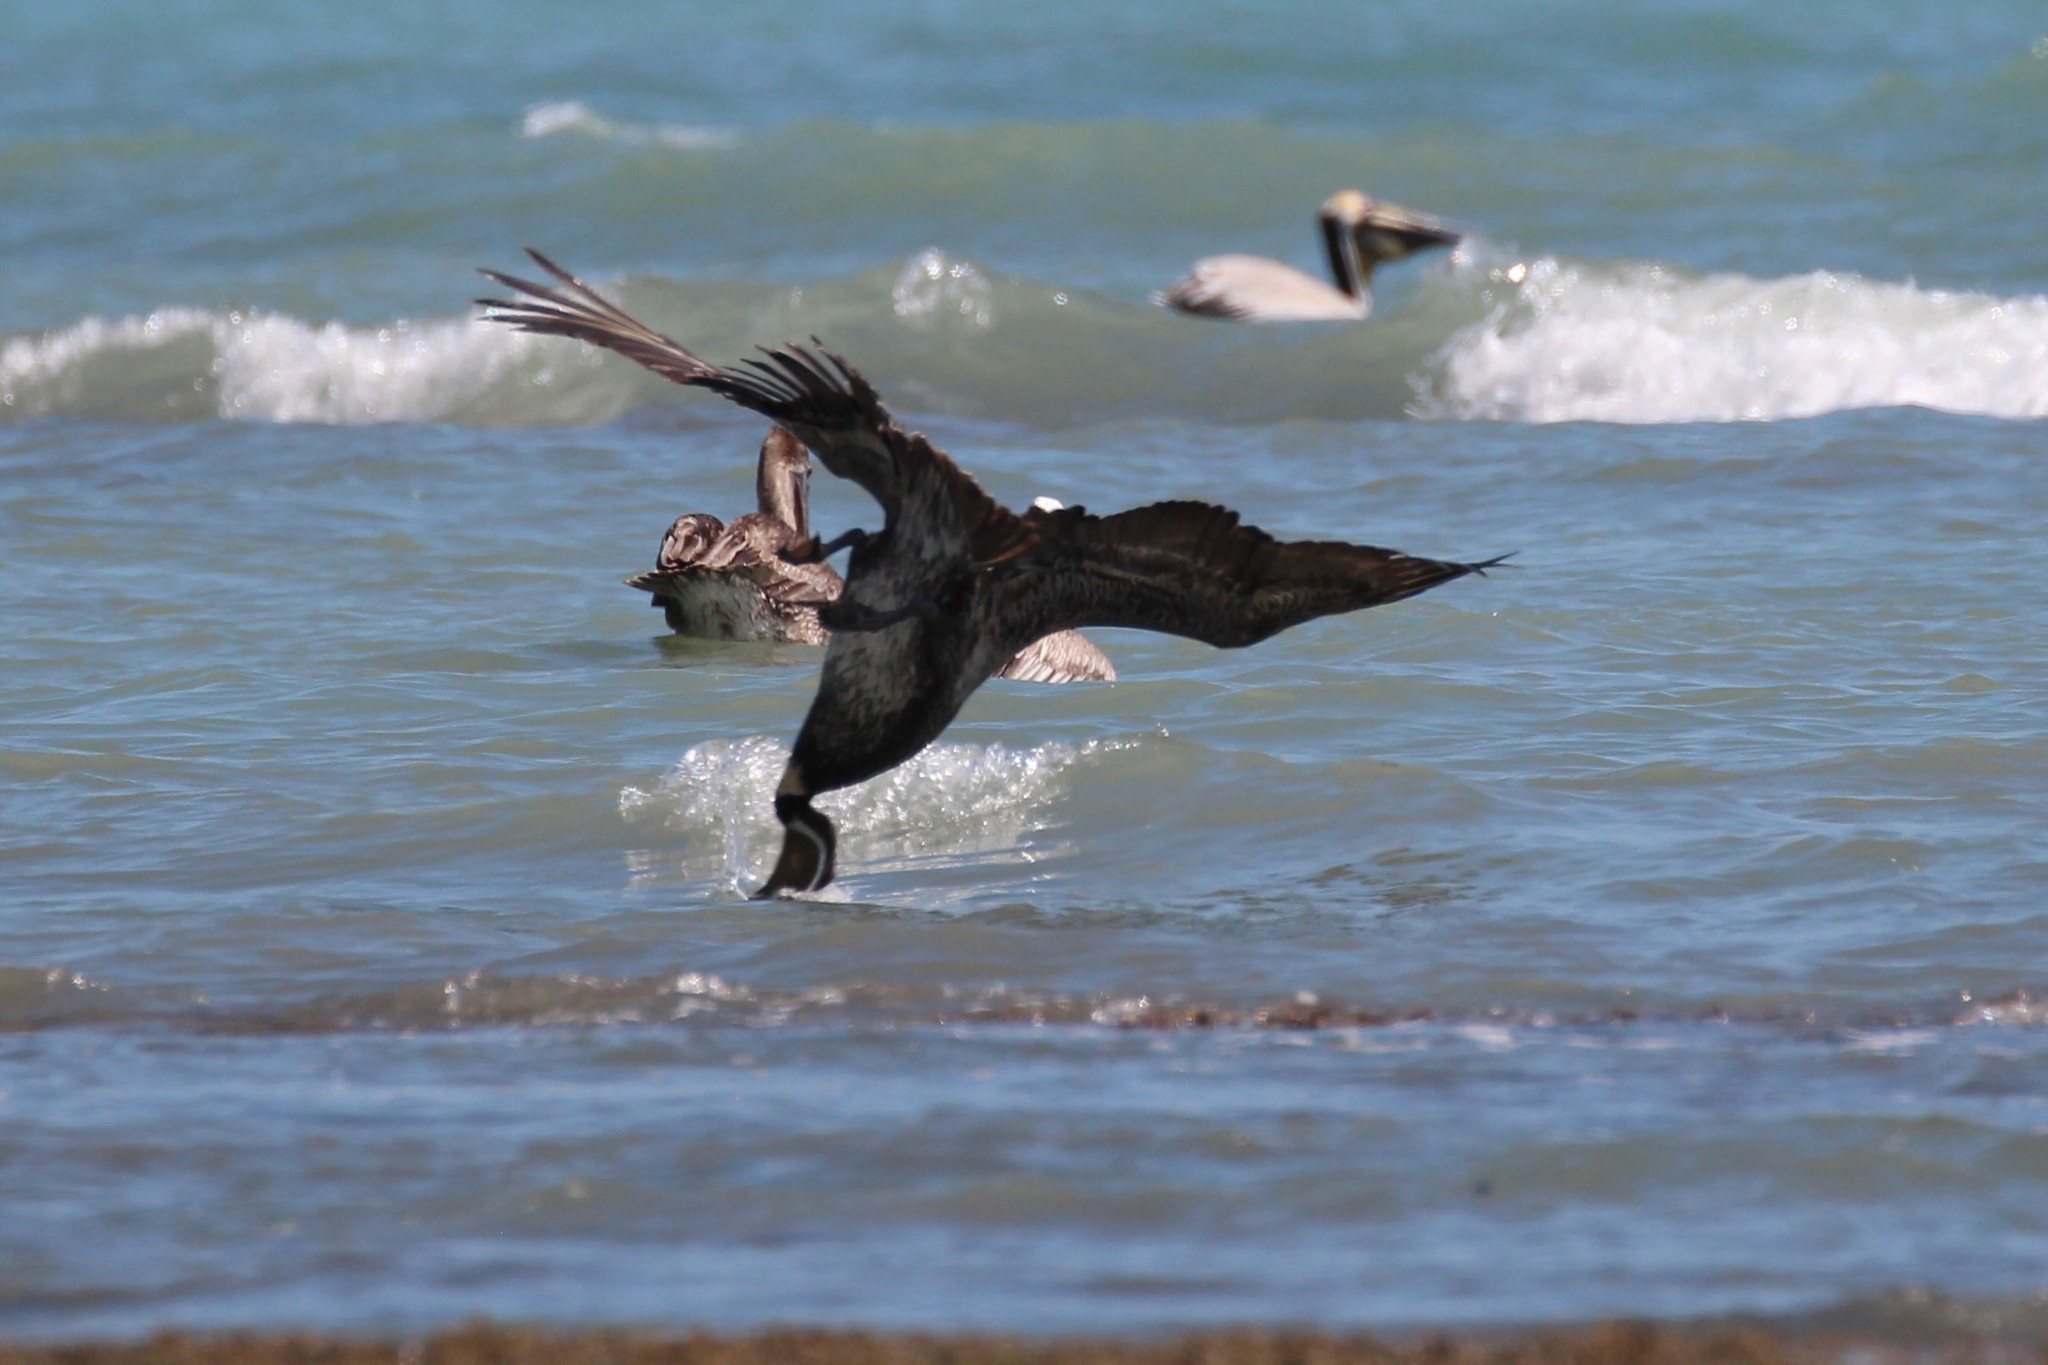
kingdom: Animalia
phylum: Chordata
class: Aves
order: Pelecaniformes
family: Pelecanidae
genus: Pelecanus
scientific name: Pelecanus occidentalis
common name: Brown pelican
